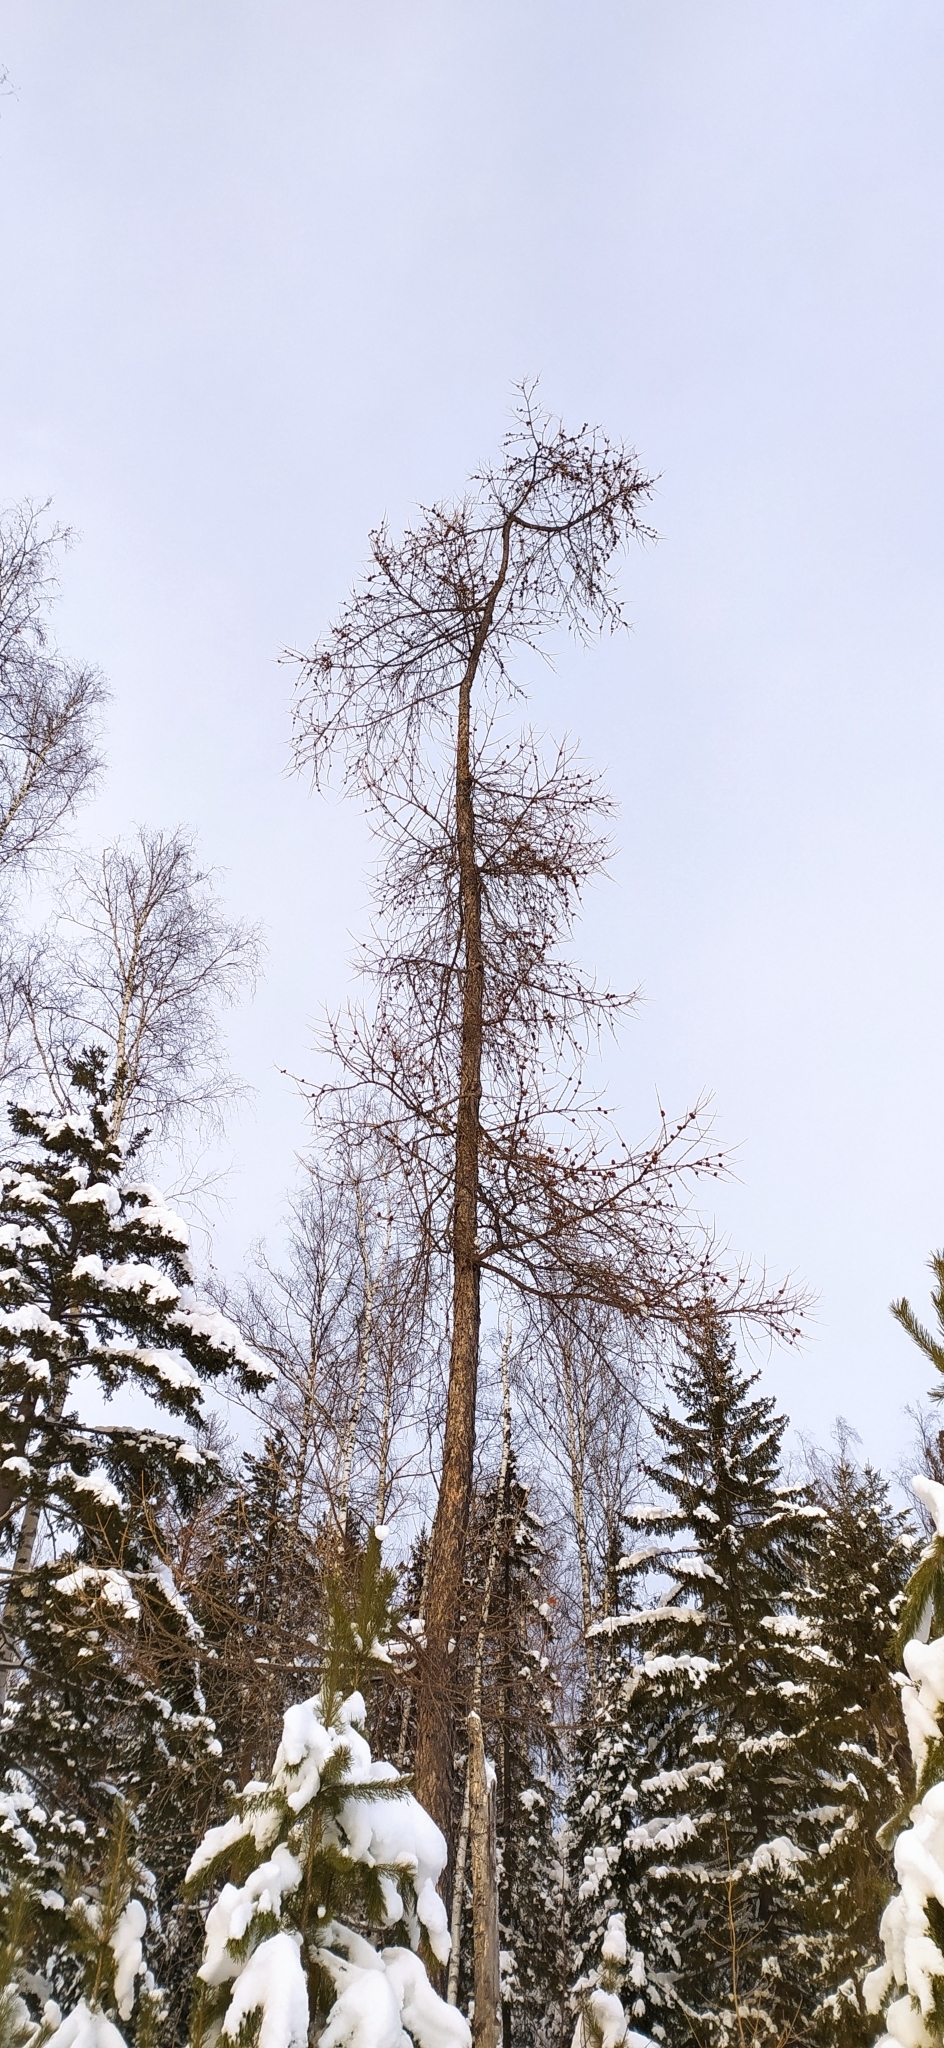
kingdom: Plantae
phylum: Tracheophyta
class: Pinopsida
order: Pinales
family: Pinaceae
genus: Larix
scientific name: Larix sibirica
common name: Siberian larch
